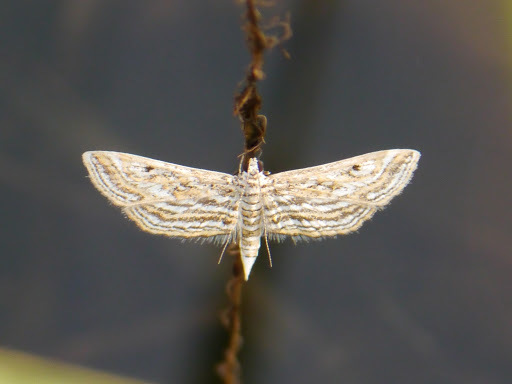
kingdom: Animalia
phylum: Arthropoda
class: Insecta
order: Lepidoptera
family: Crambidae
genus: Parapoynx
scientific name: Parapoynx fluctuosalis
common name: Moth
